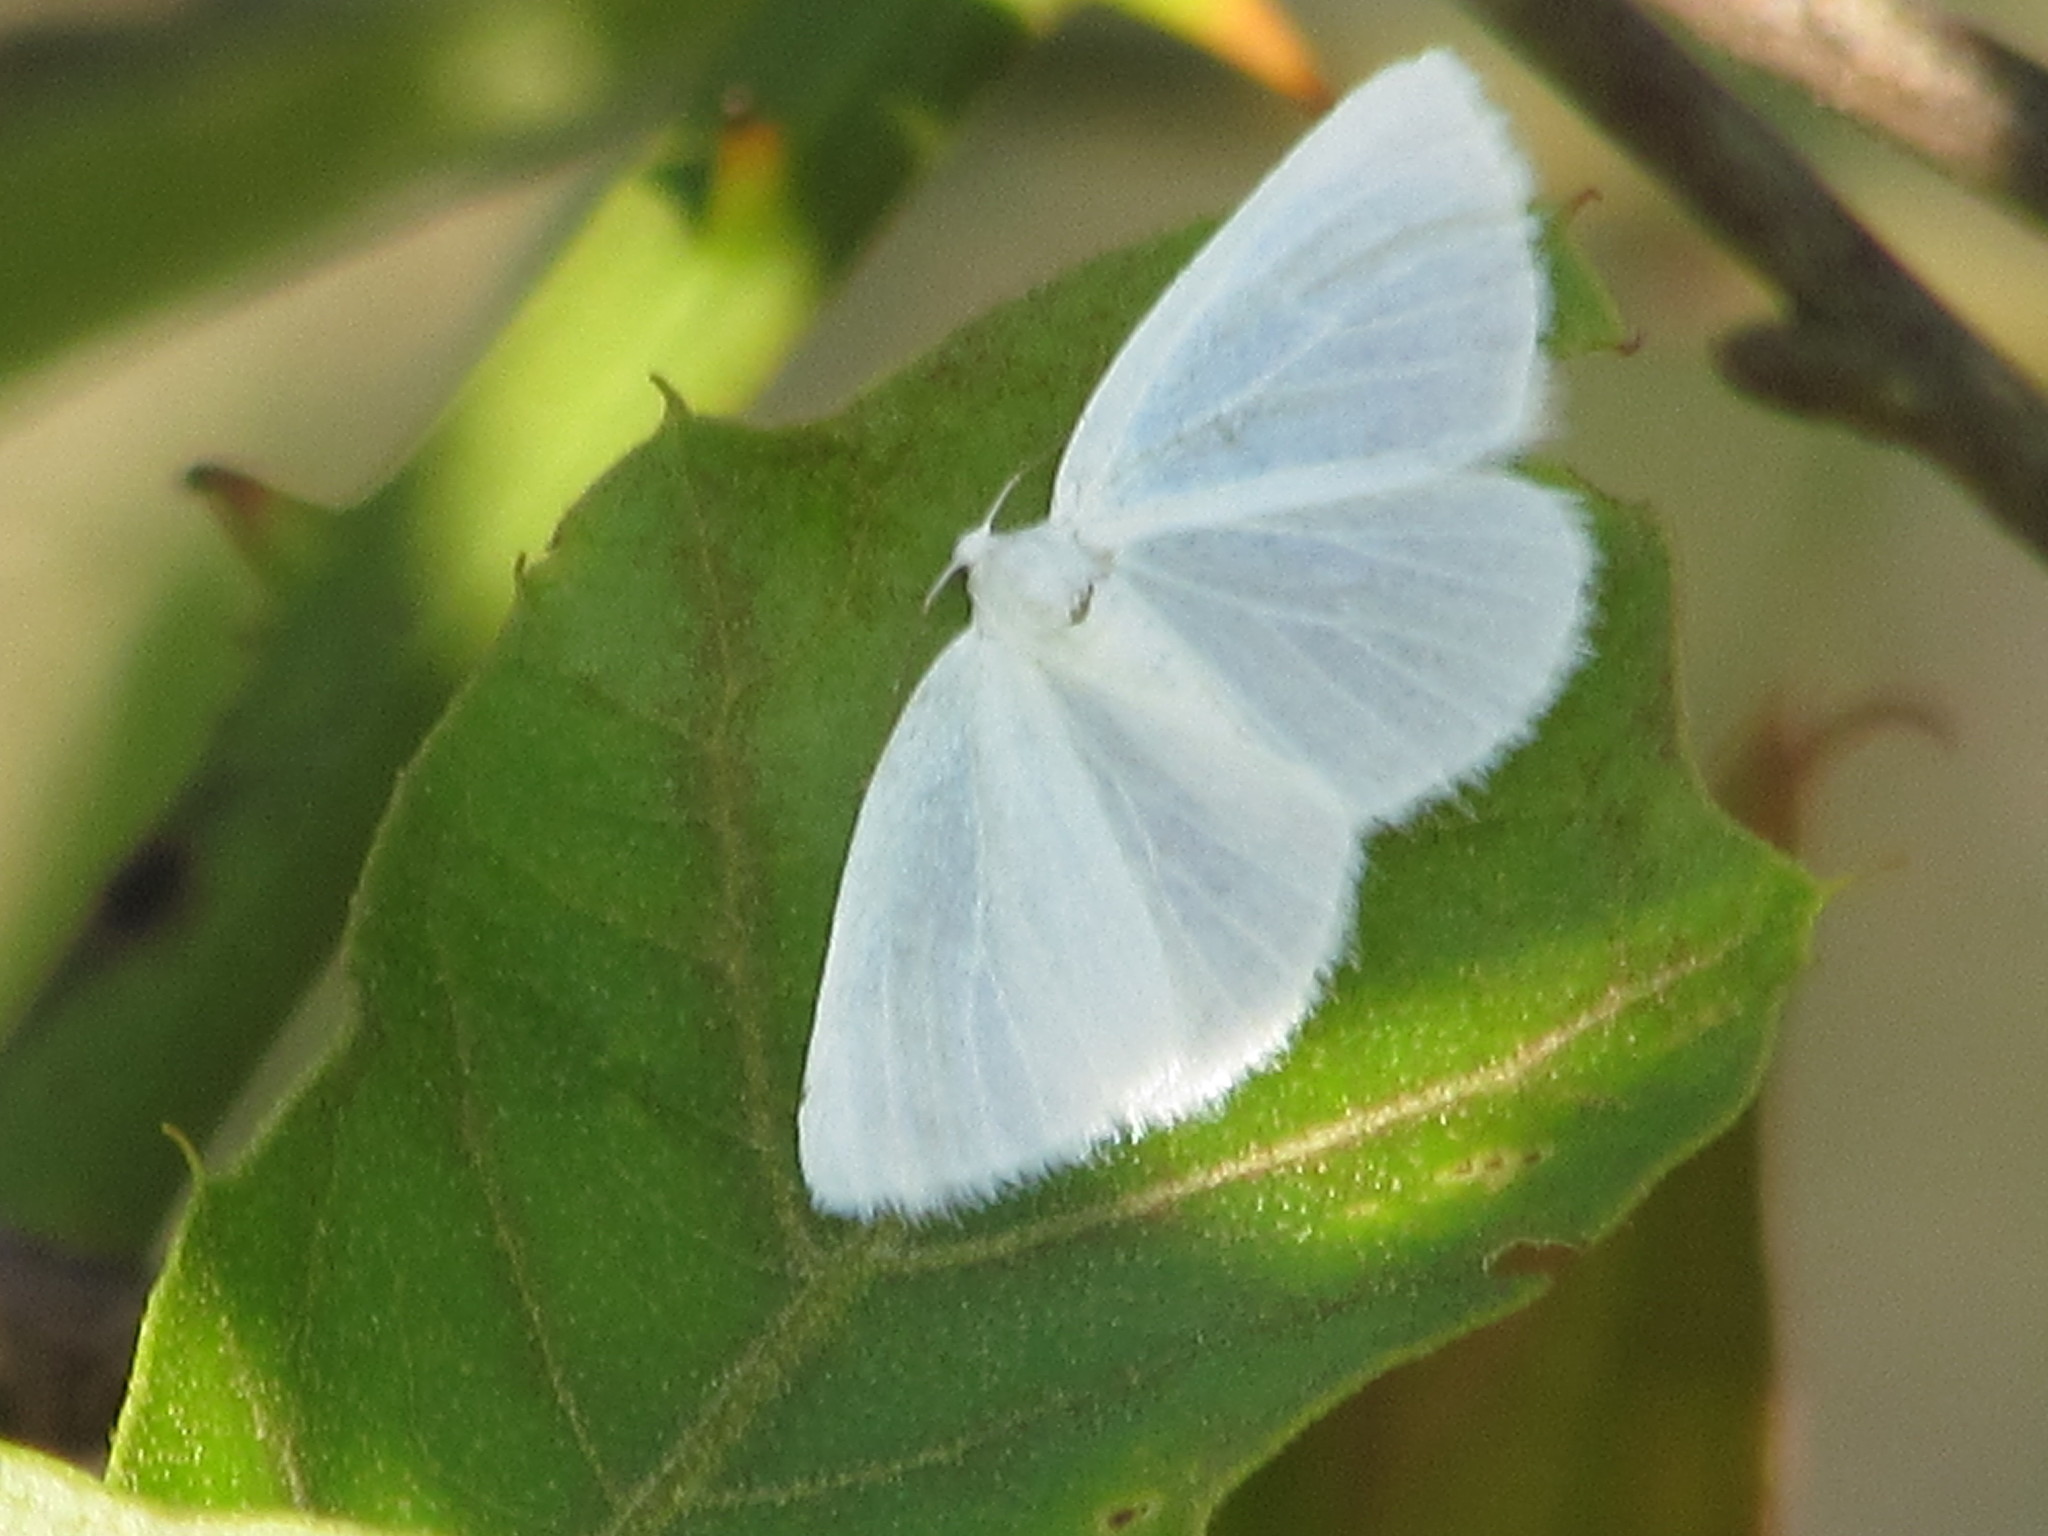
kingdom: Animalia
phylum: Arthropoda
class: Insecta
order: Lepidoptera
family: Geometridae
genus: Lomographa
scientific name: Lomographa vestaliata
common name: White spring moth
